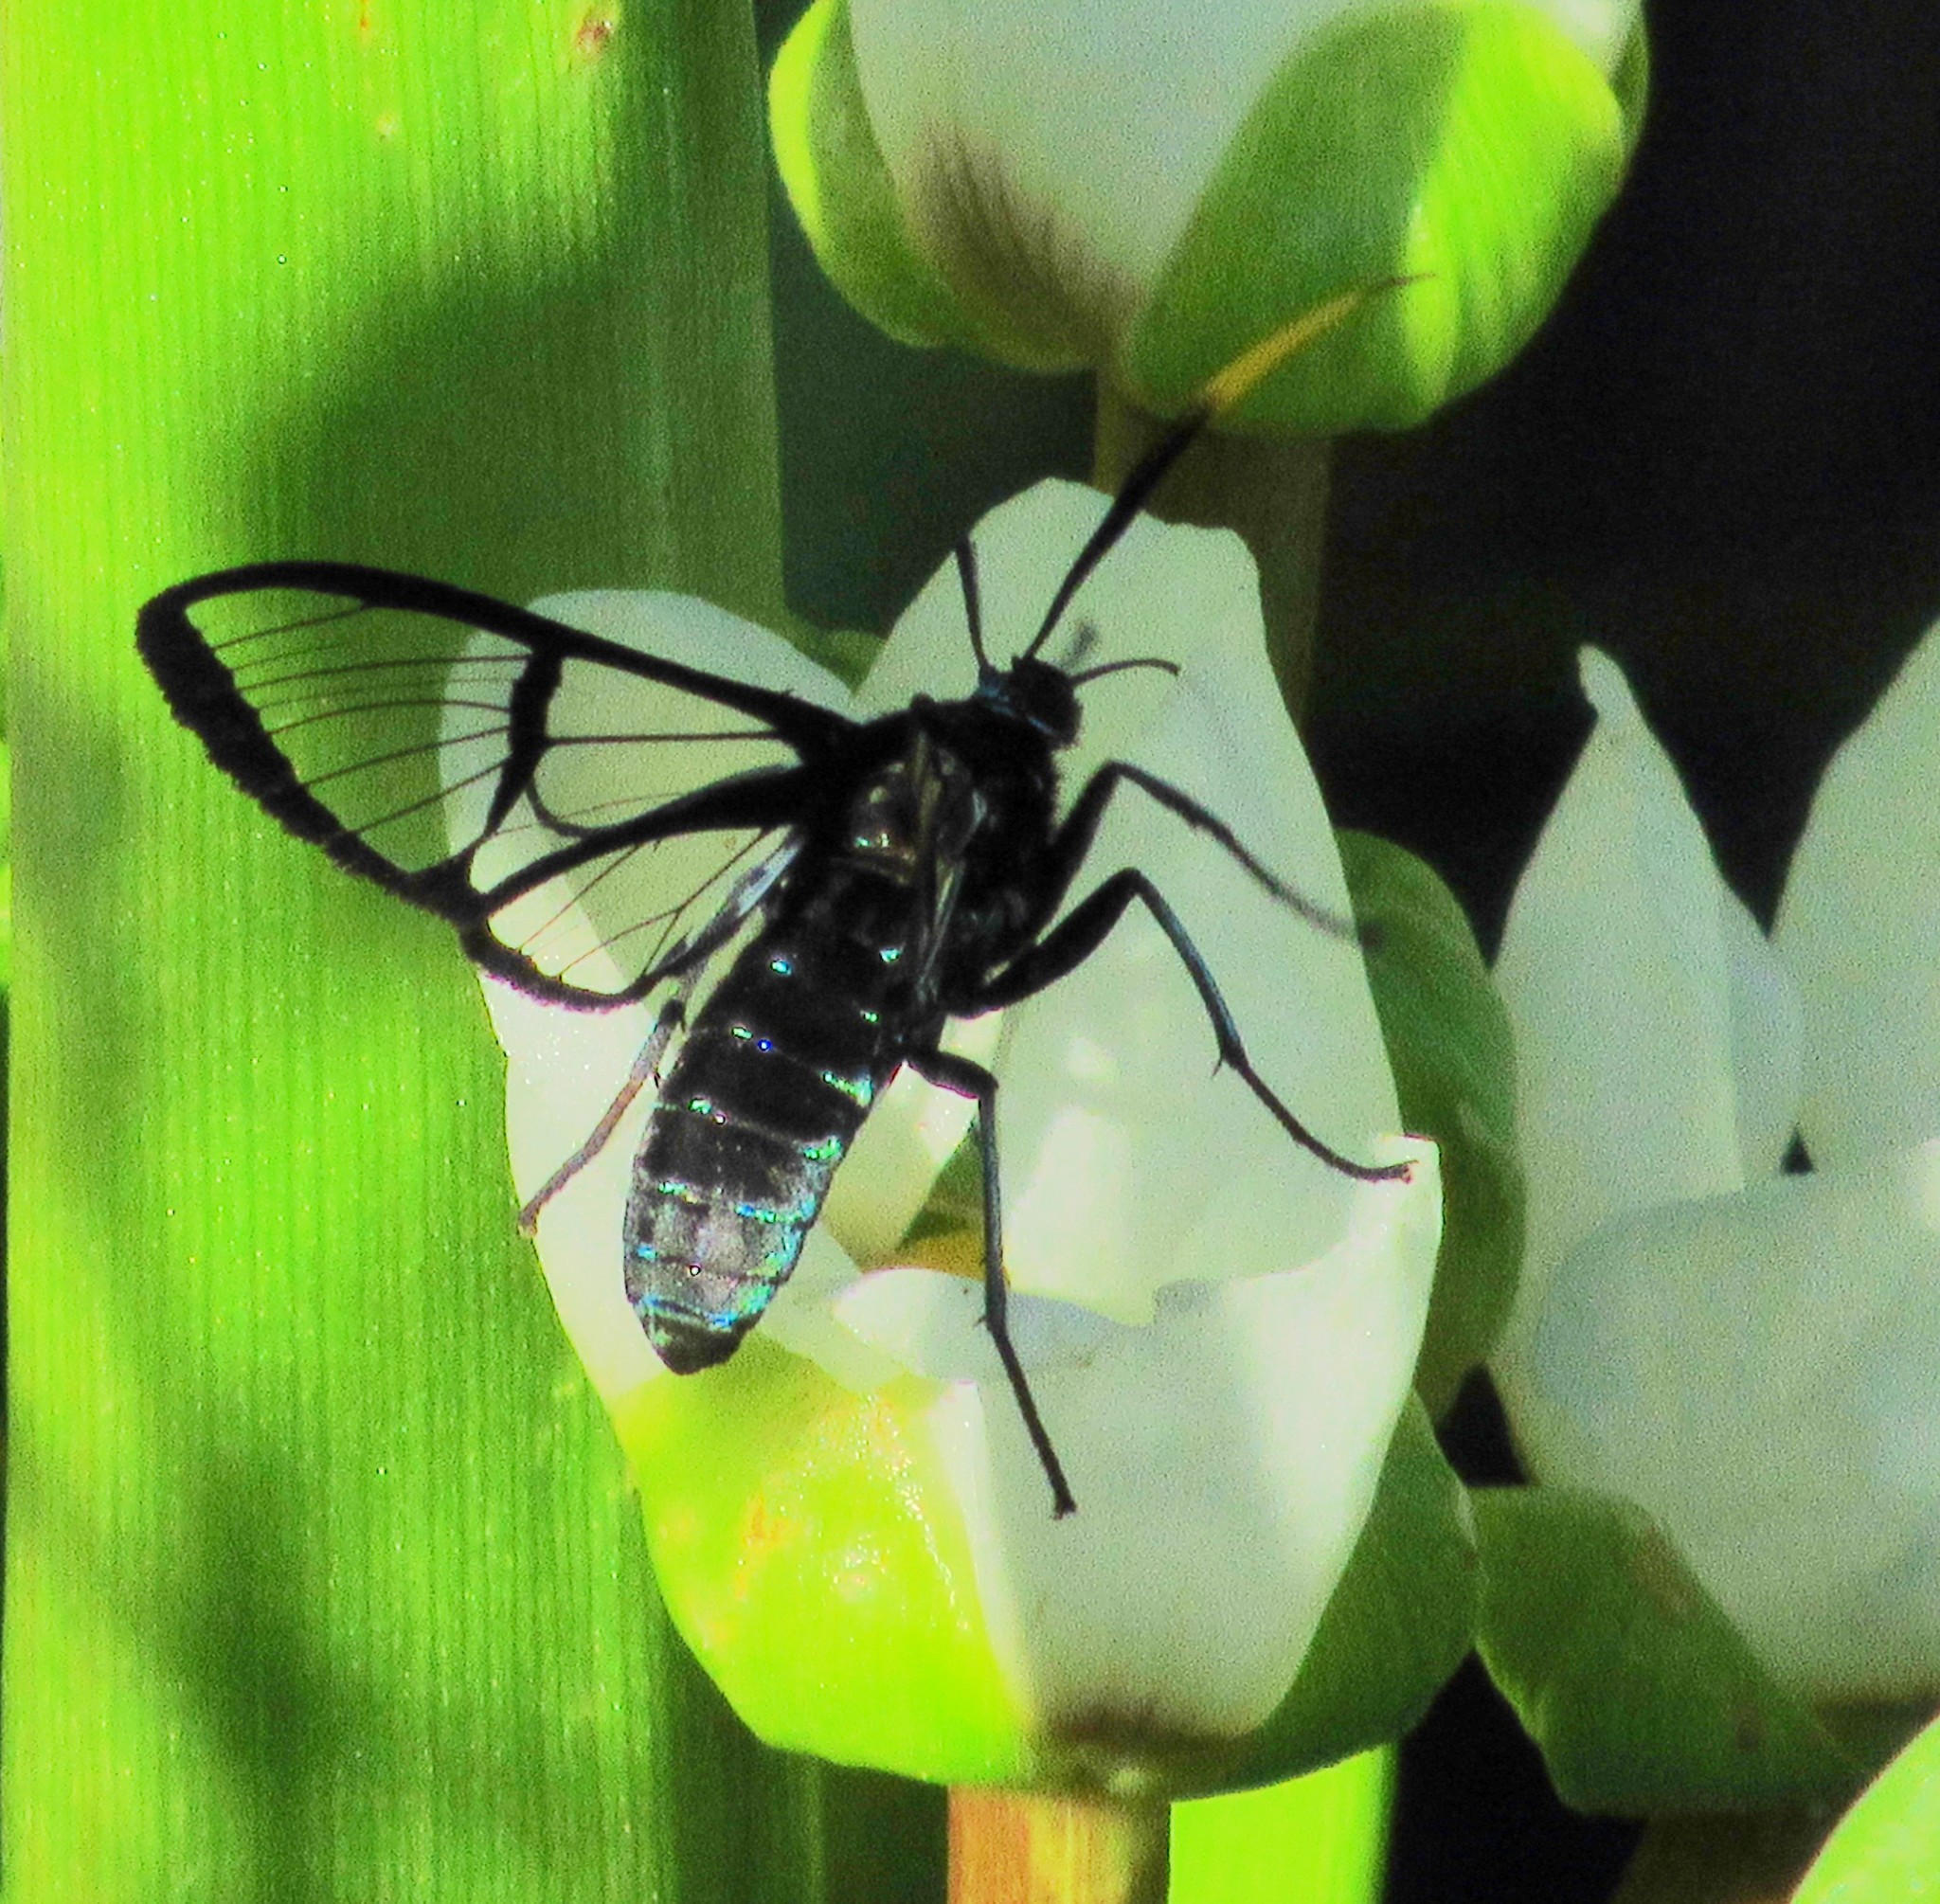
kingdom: Animalia
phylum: Arthropoda
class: Insecta
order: Lepidoptera
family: Erebidae
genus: Nyridela
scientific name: Nyridela chalciope
